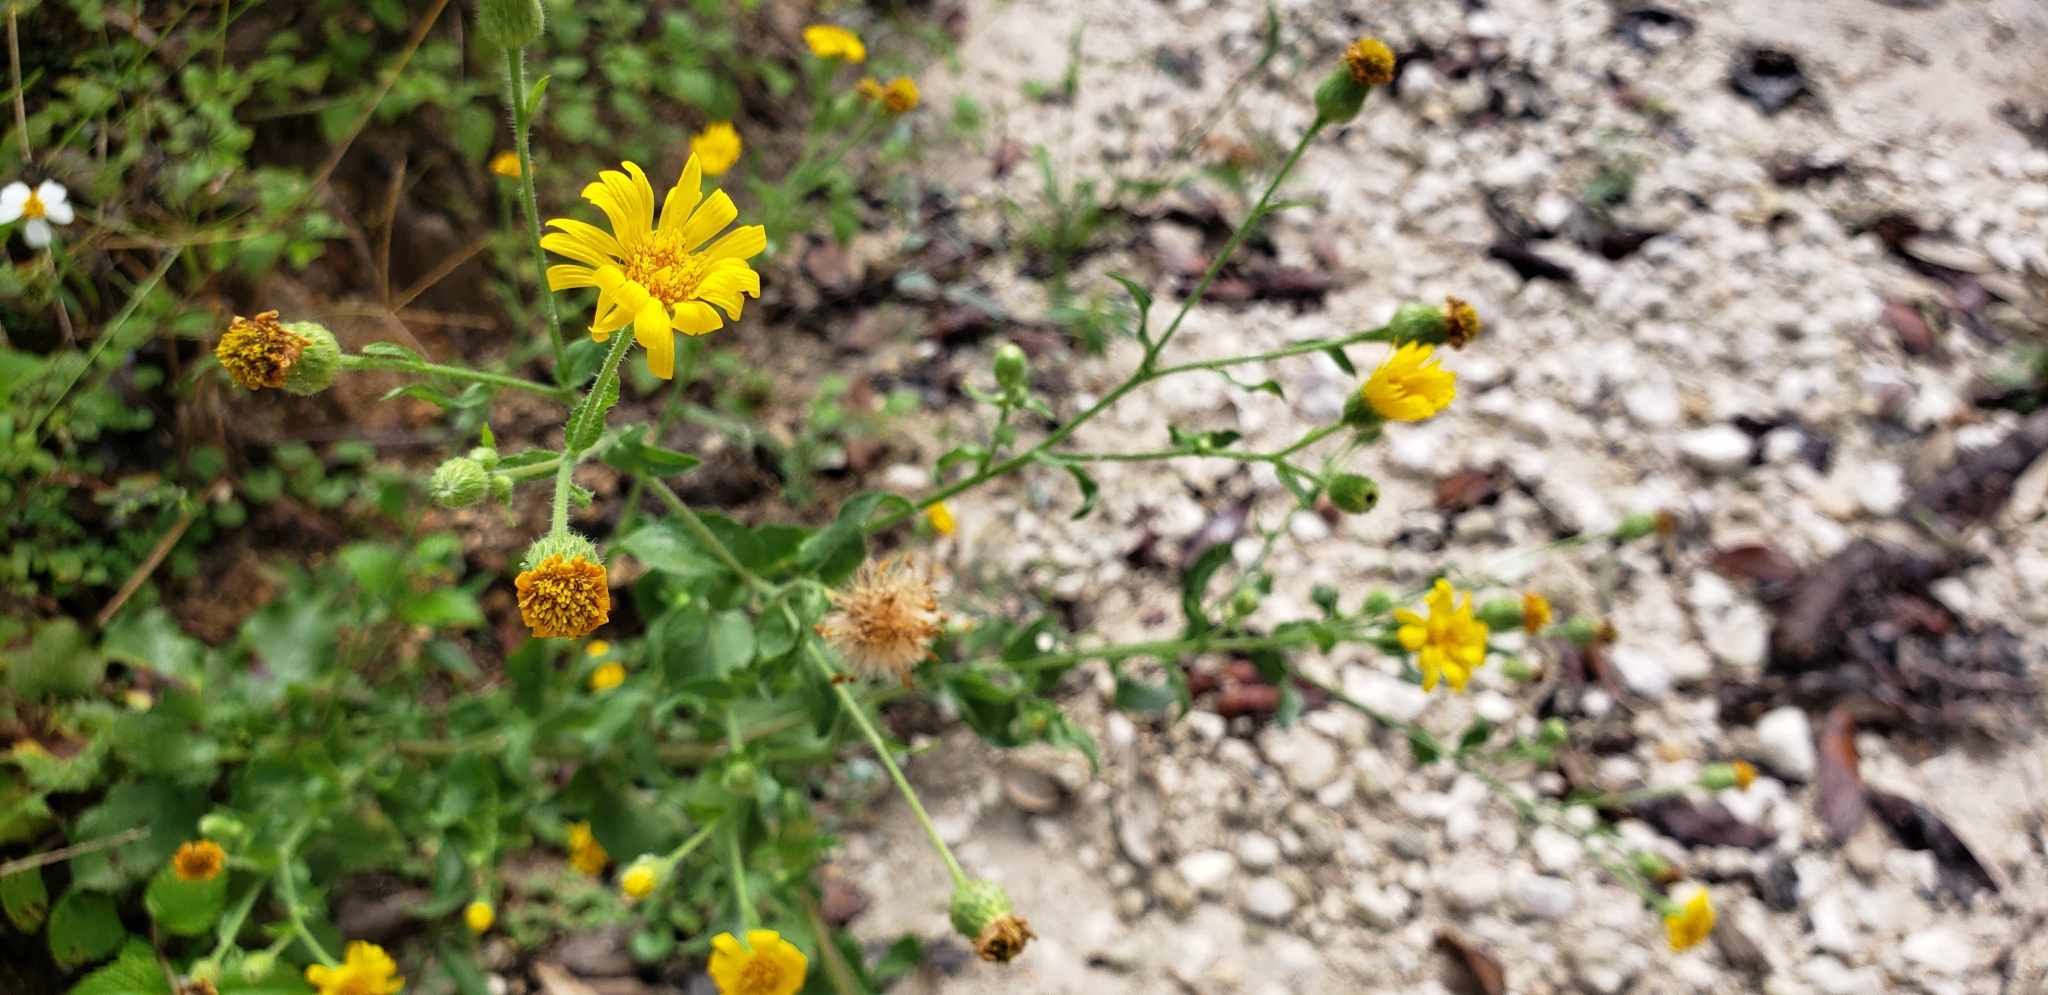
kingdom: Plantae
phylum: Tracheophyta
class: Magnoliopsida
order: Asterales
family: Asteraceae
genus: Heterotheca
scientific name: Heterotheca subaxillaris
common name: Camphorweed
